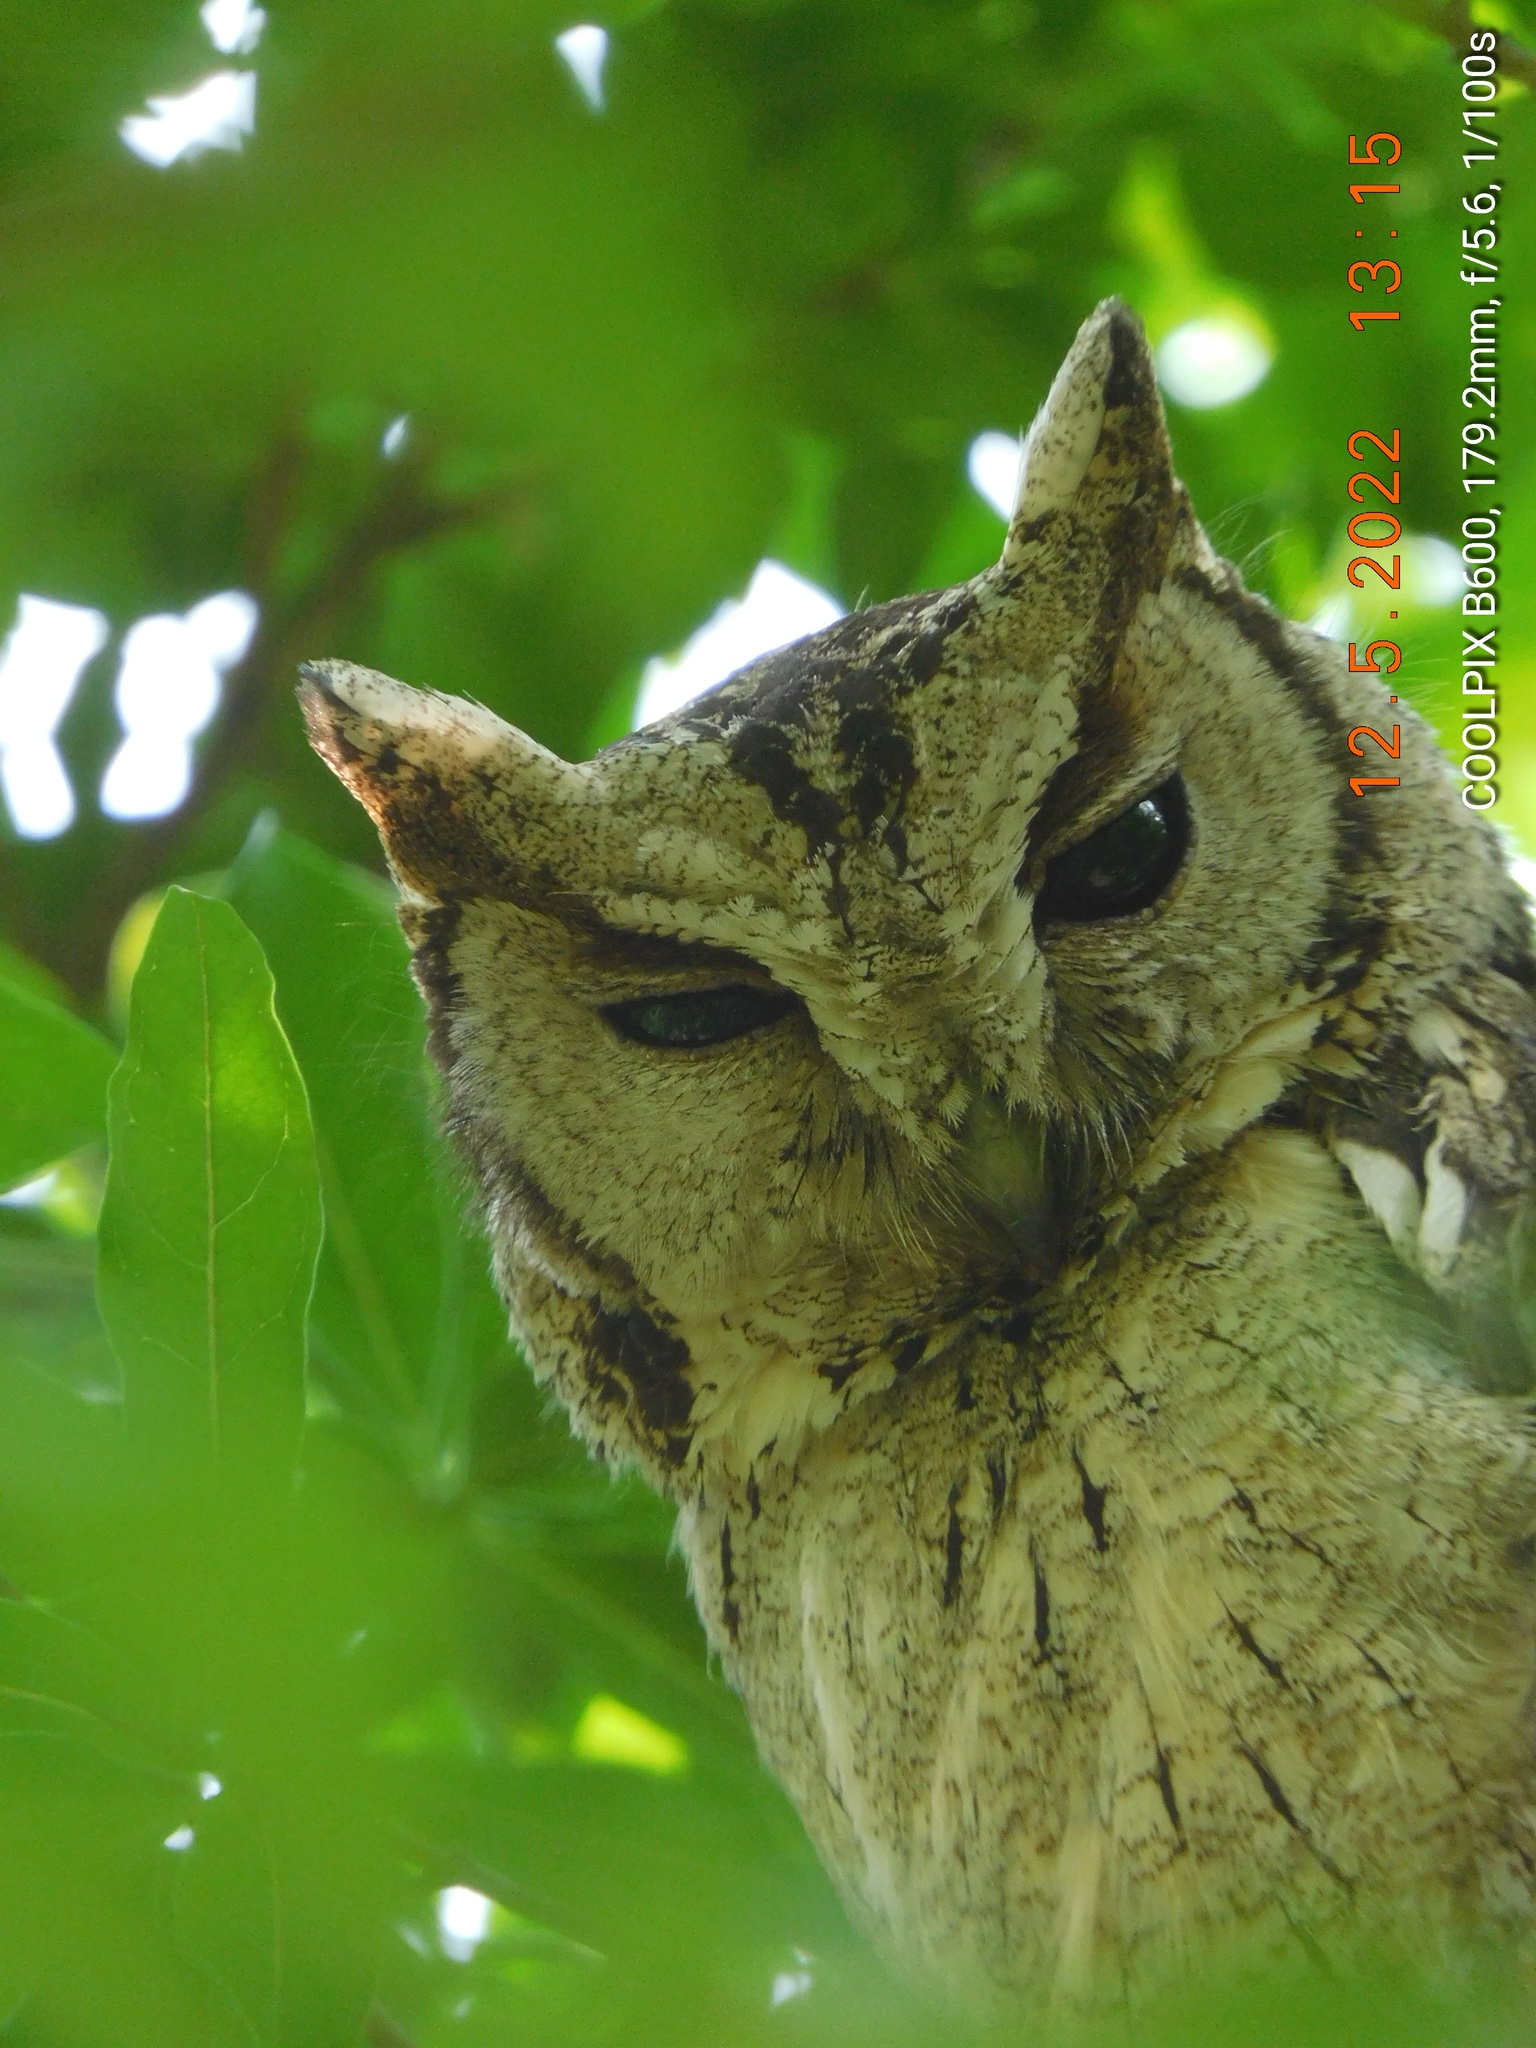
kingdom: Animalia
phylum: Chordata
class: Aves
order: Strigiformes
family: Strigidae
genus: Otus
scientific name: Otus bakkamoena
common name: Indian scops owl
